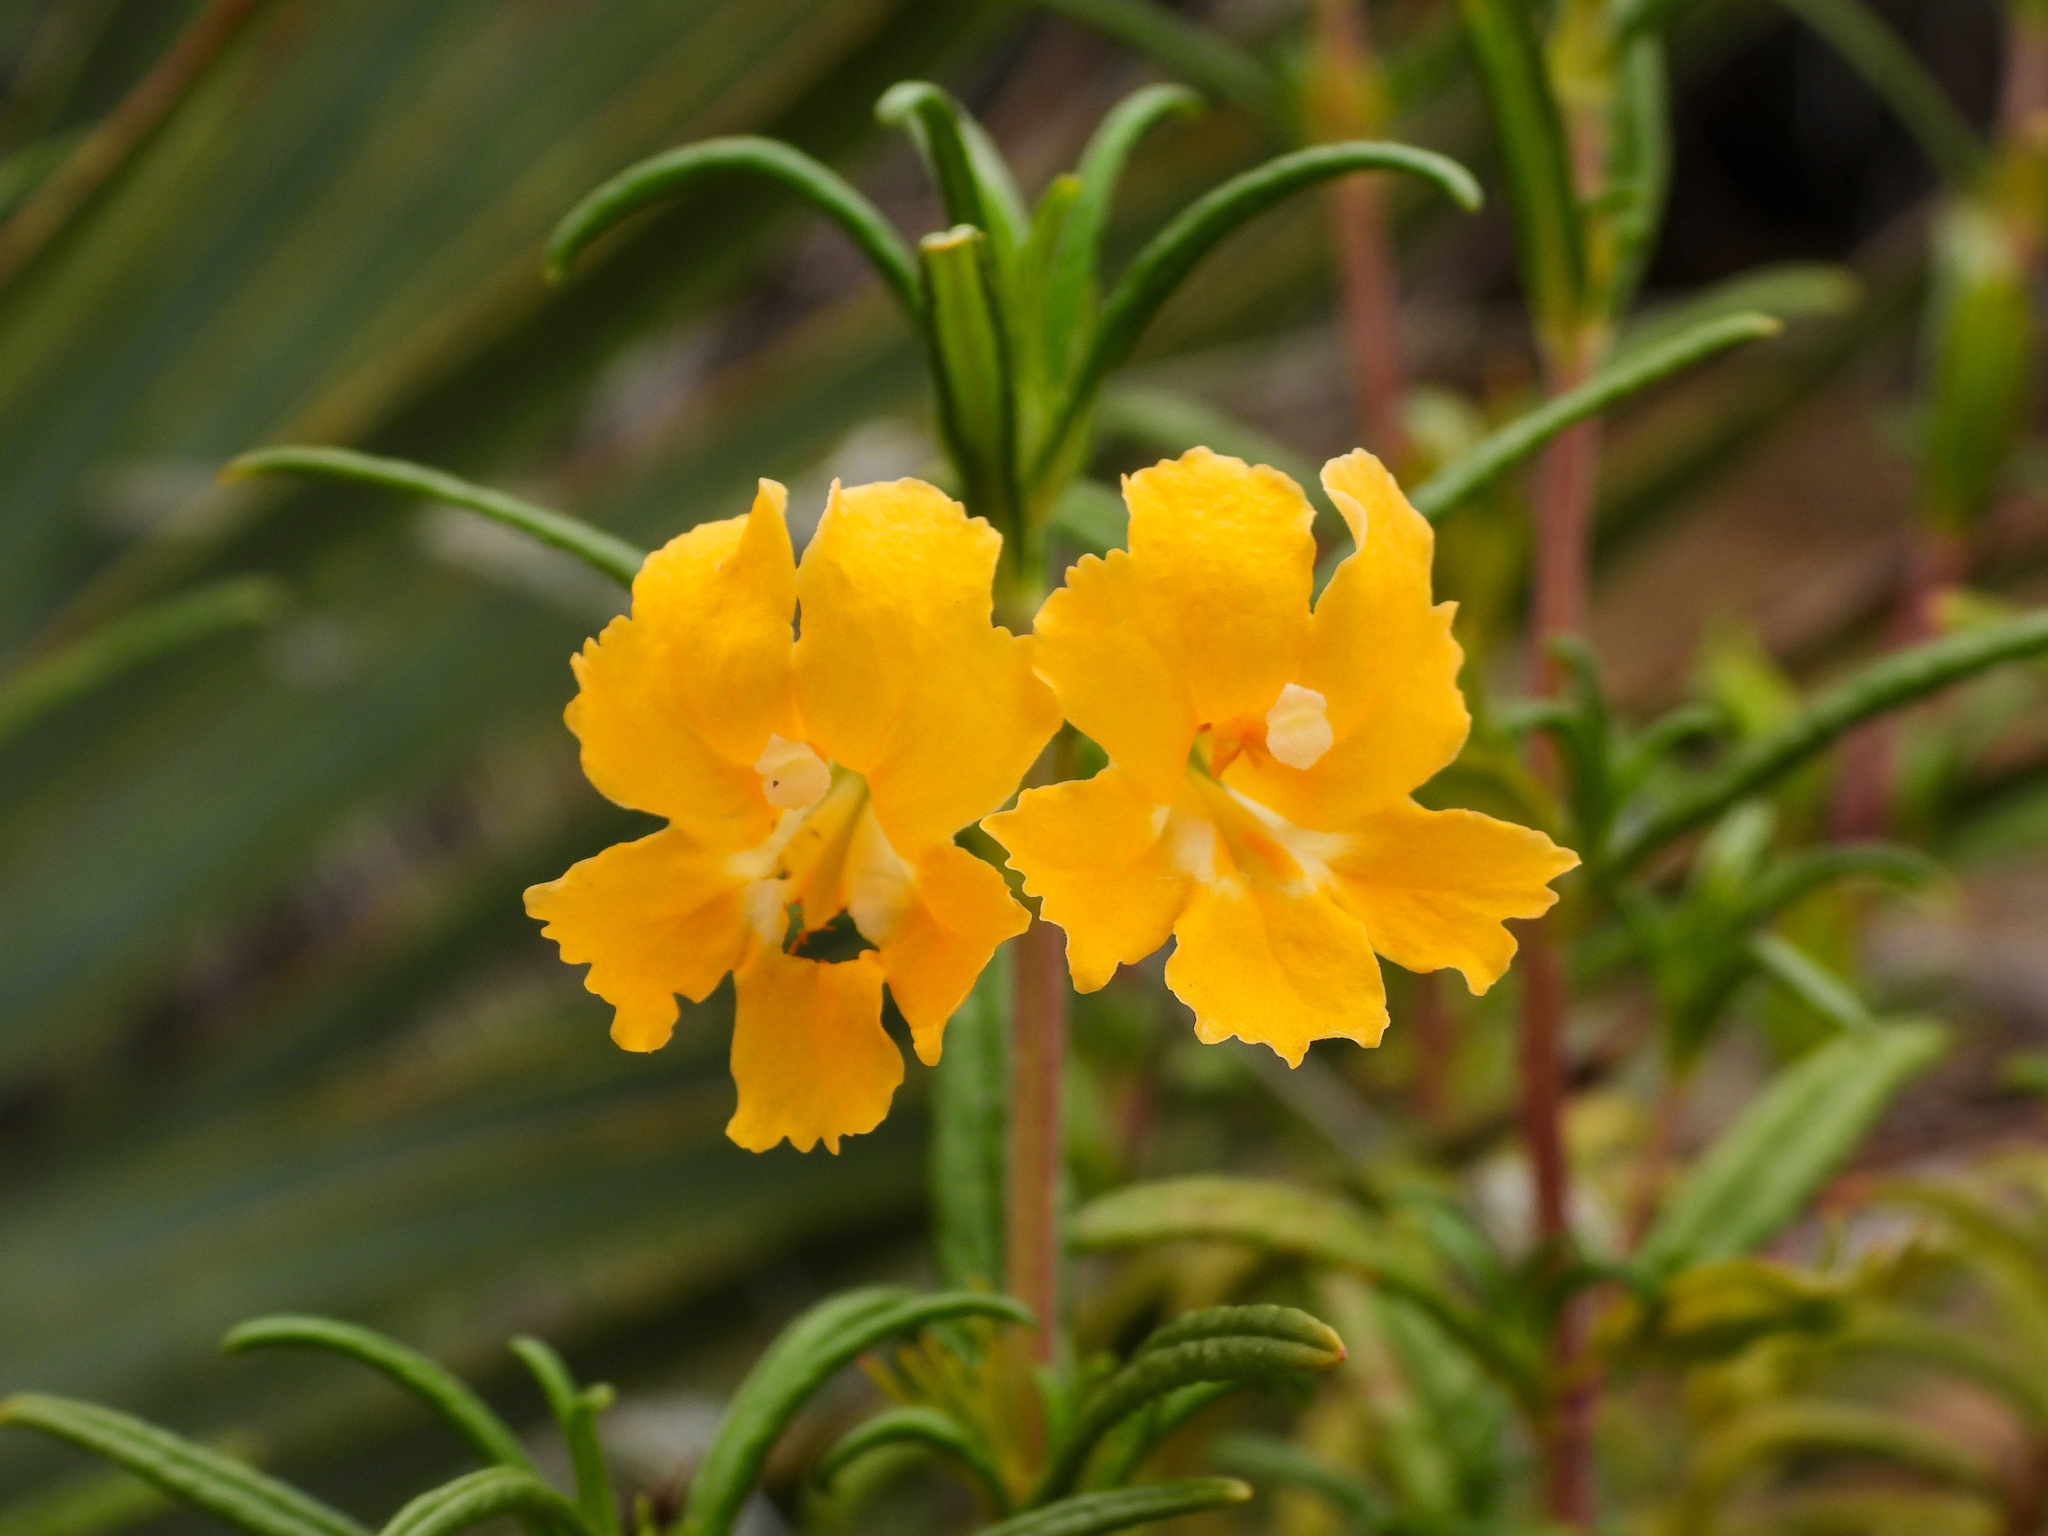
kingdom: Plantae
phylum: Tracheophyta
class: Magnoliopsida
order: Lamiales
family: Phrymaceae
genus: Diplacus
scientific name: Diplacus australis
